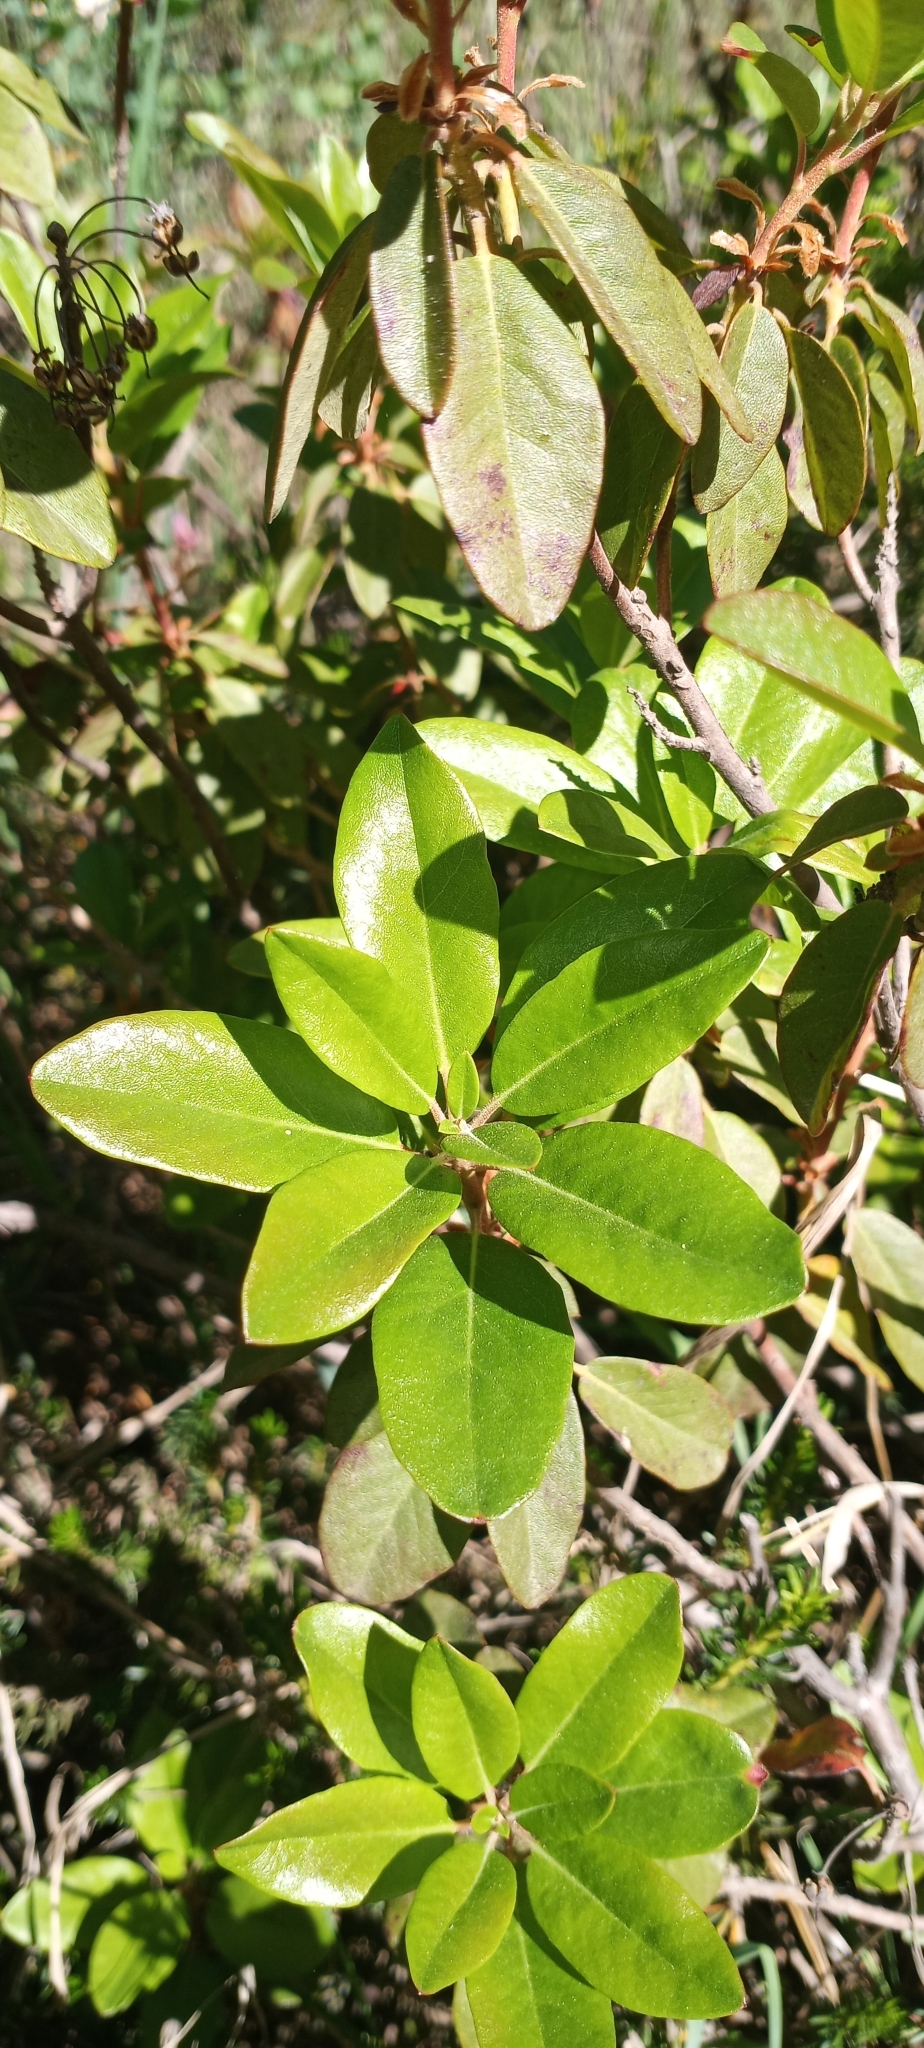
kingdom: Plantae
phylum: Tracheophyta
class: Magnoliopsida
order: Ericales
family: Ericaceae
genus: Rhododendron
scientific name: Rhododendron columbianum
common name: Western labrador tea
